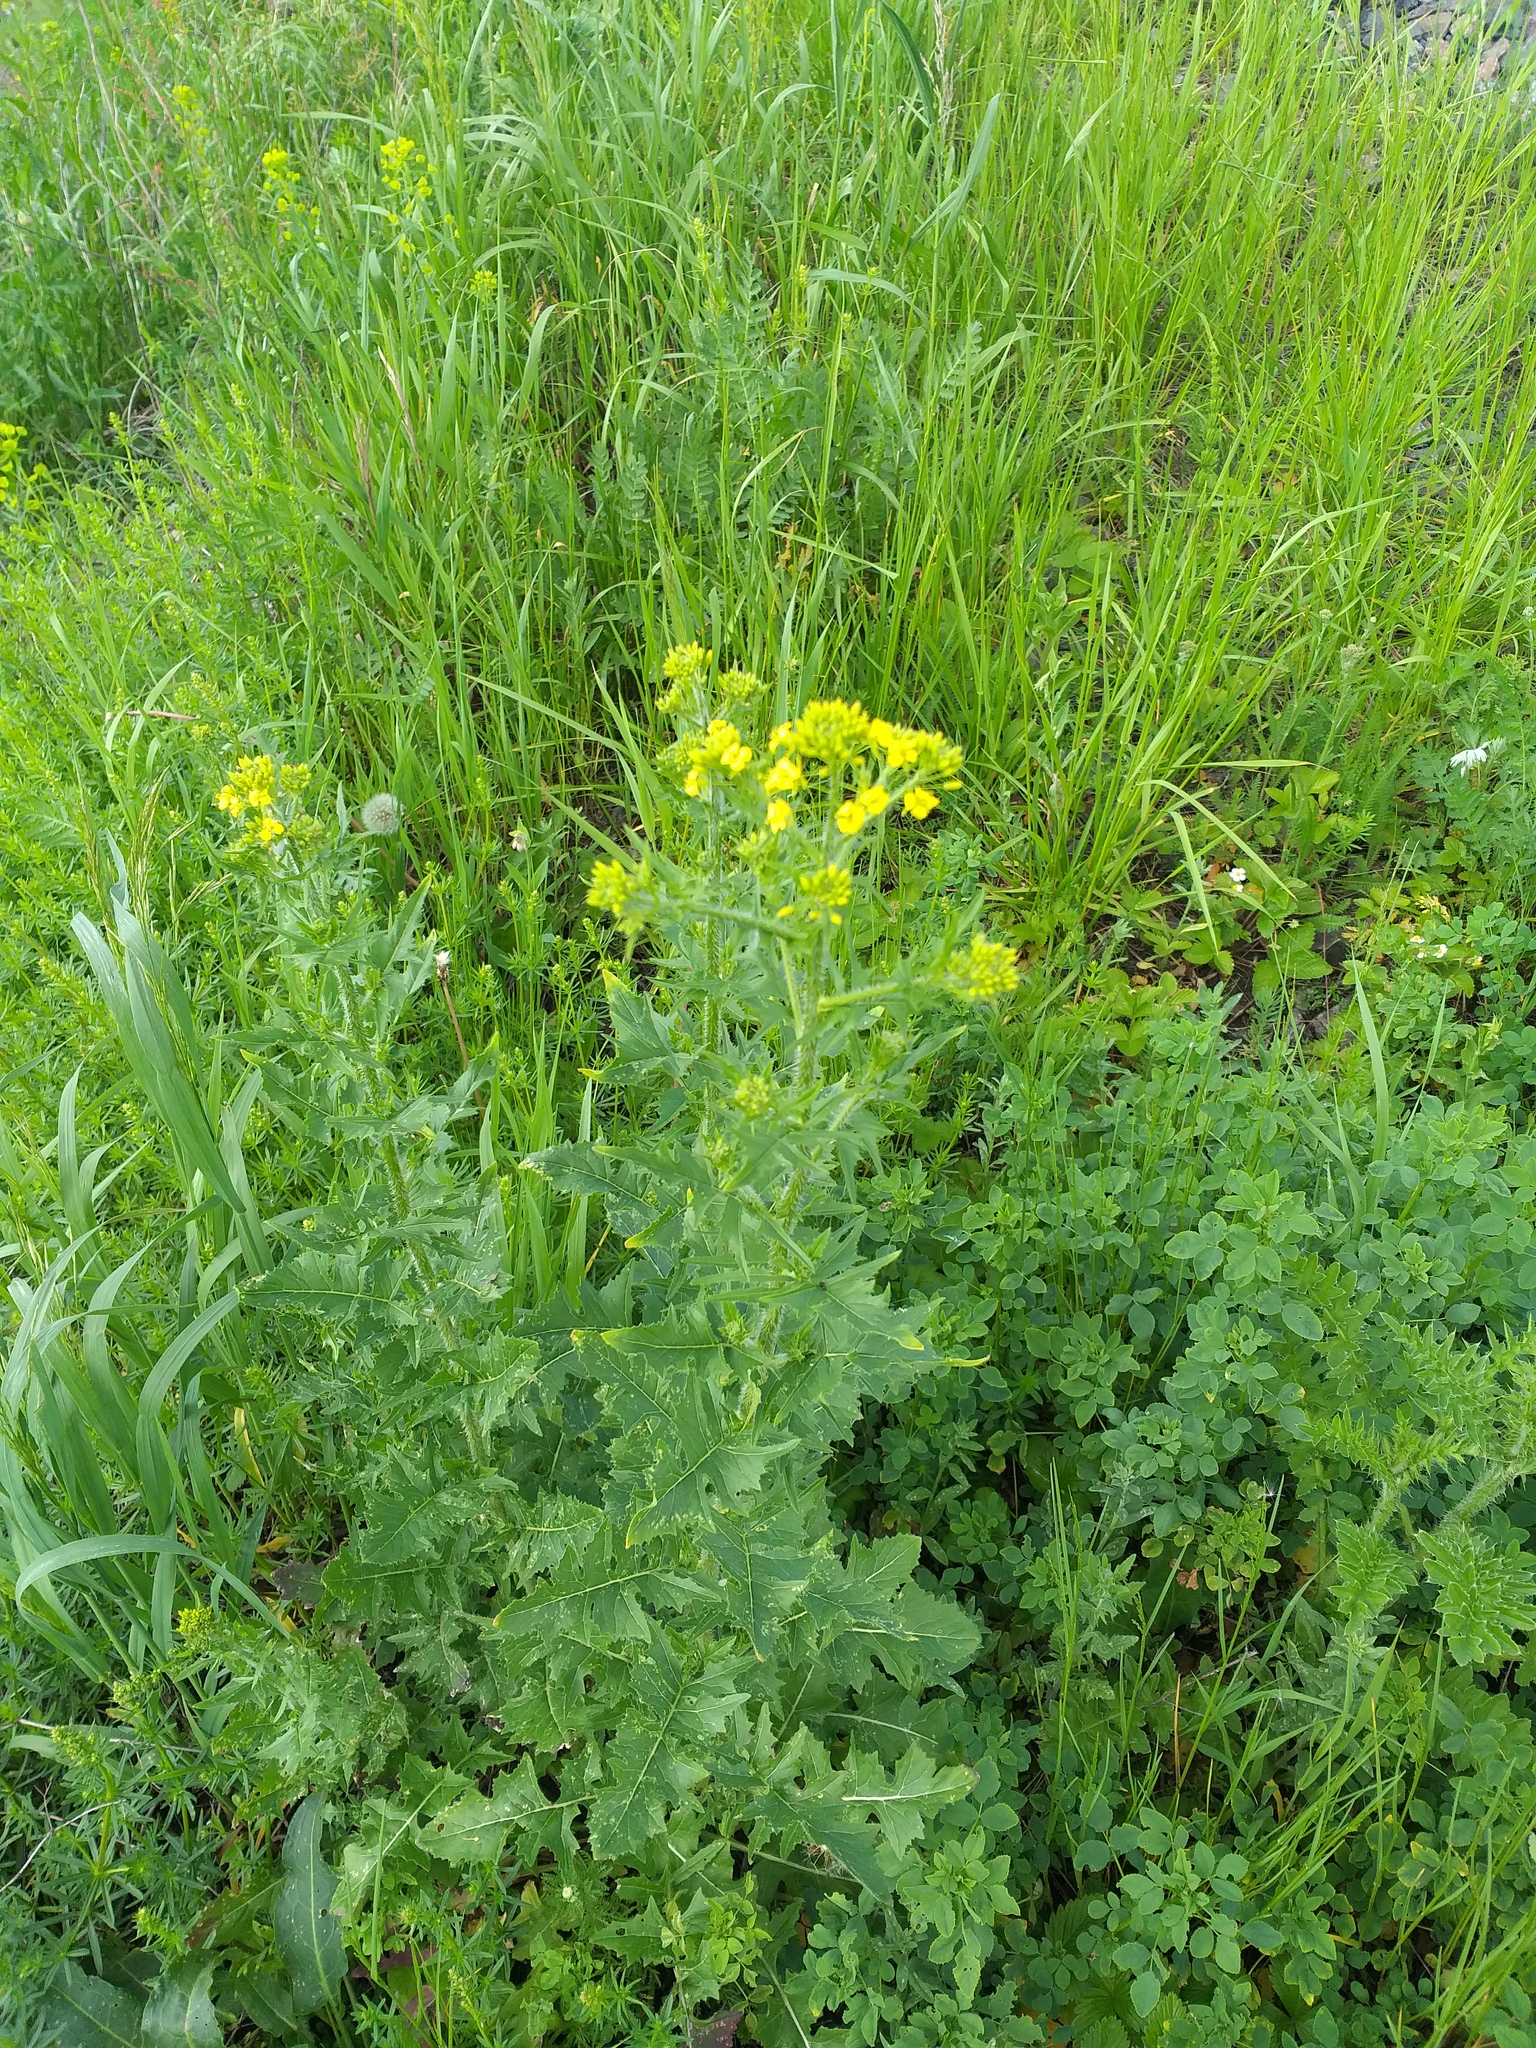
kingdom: Plantae
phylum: Tracheophyta
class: Magnoliopsida
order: Brassicales
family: Brassicaceae
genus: Sisymbrium
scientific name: Sisymbrium loeselii
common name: False london-rocket
